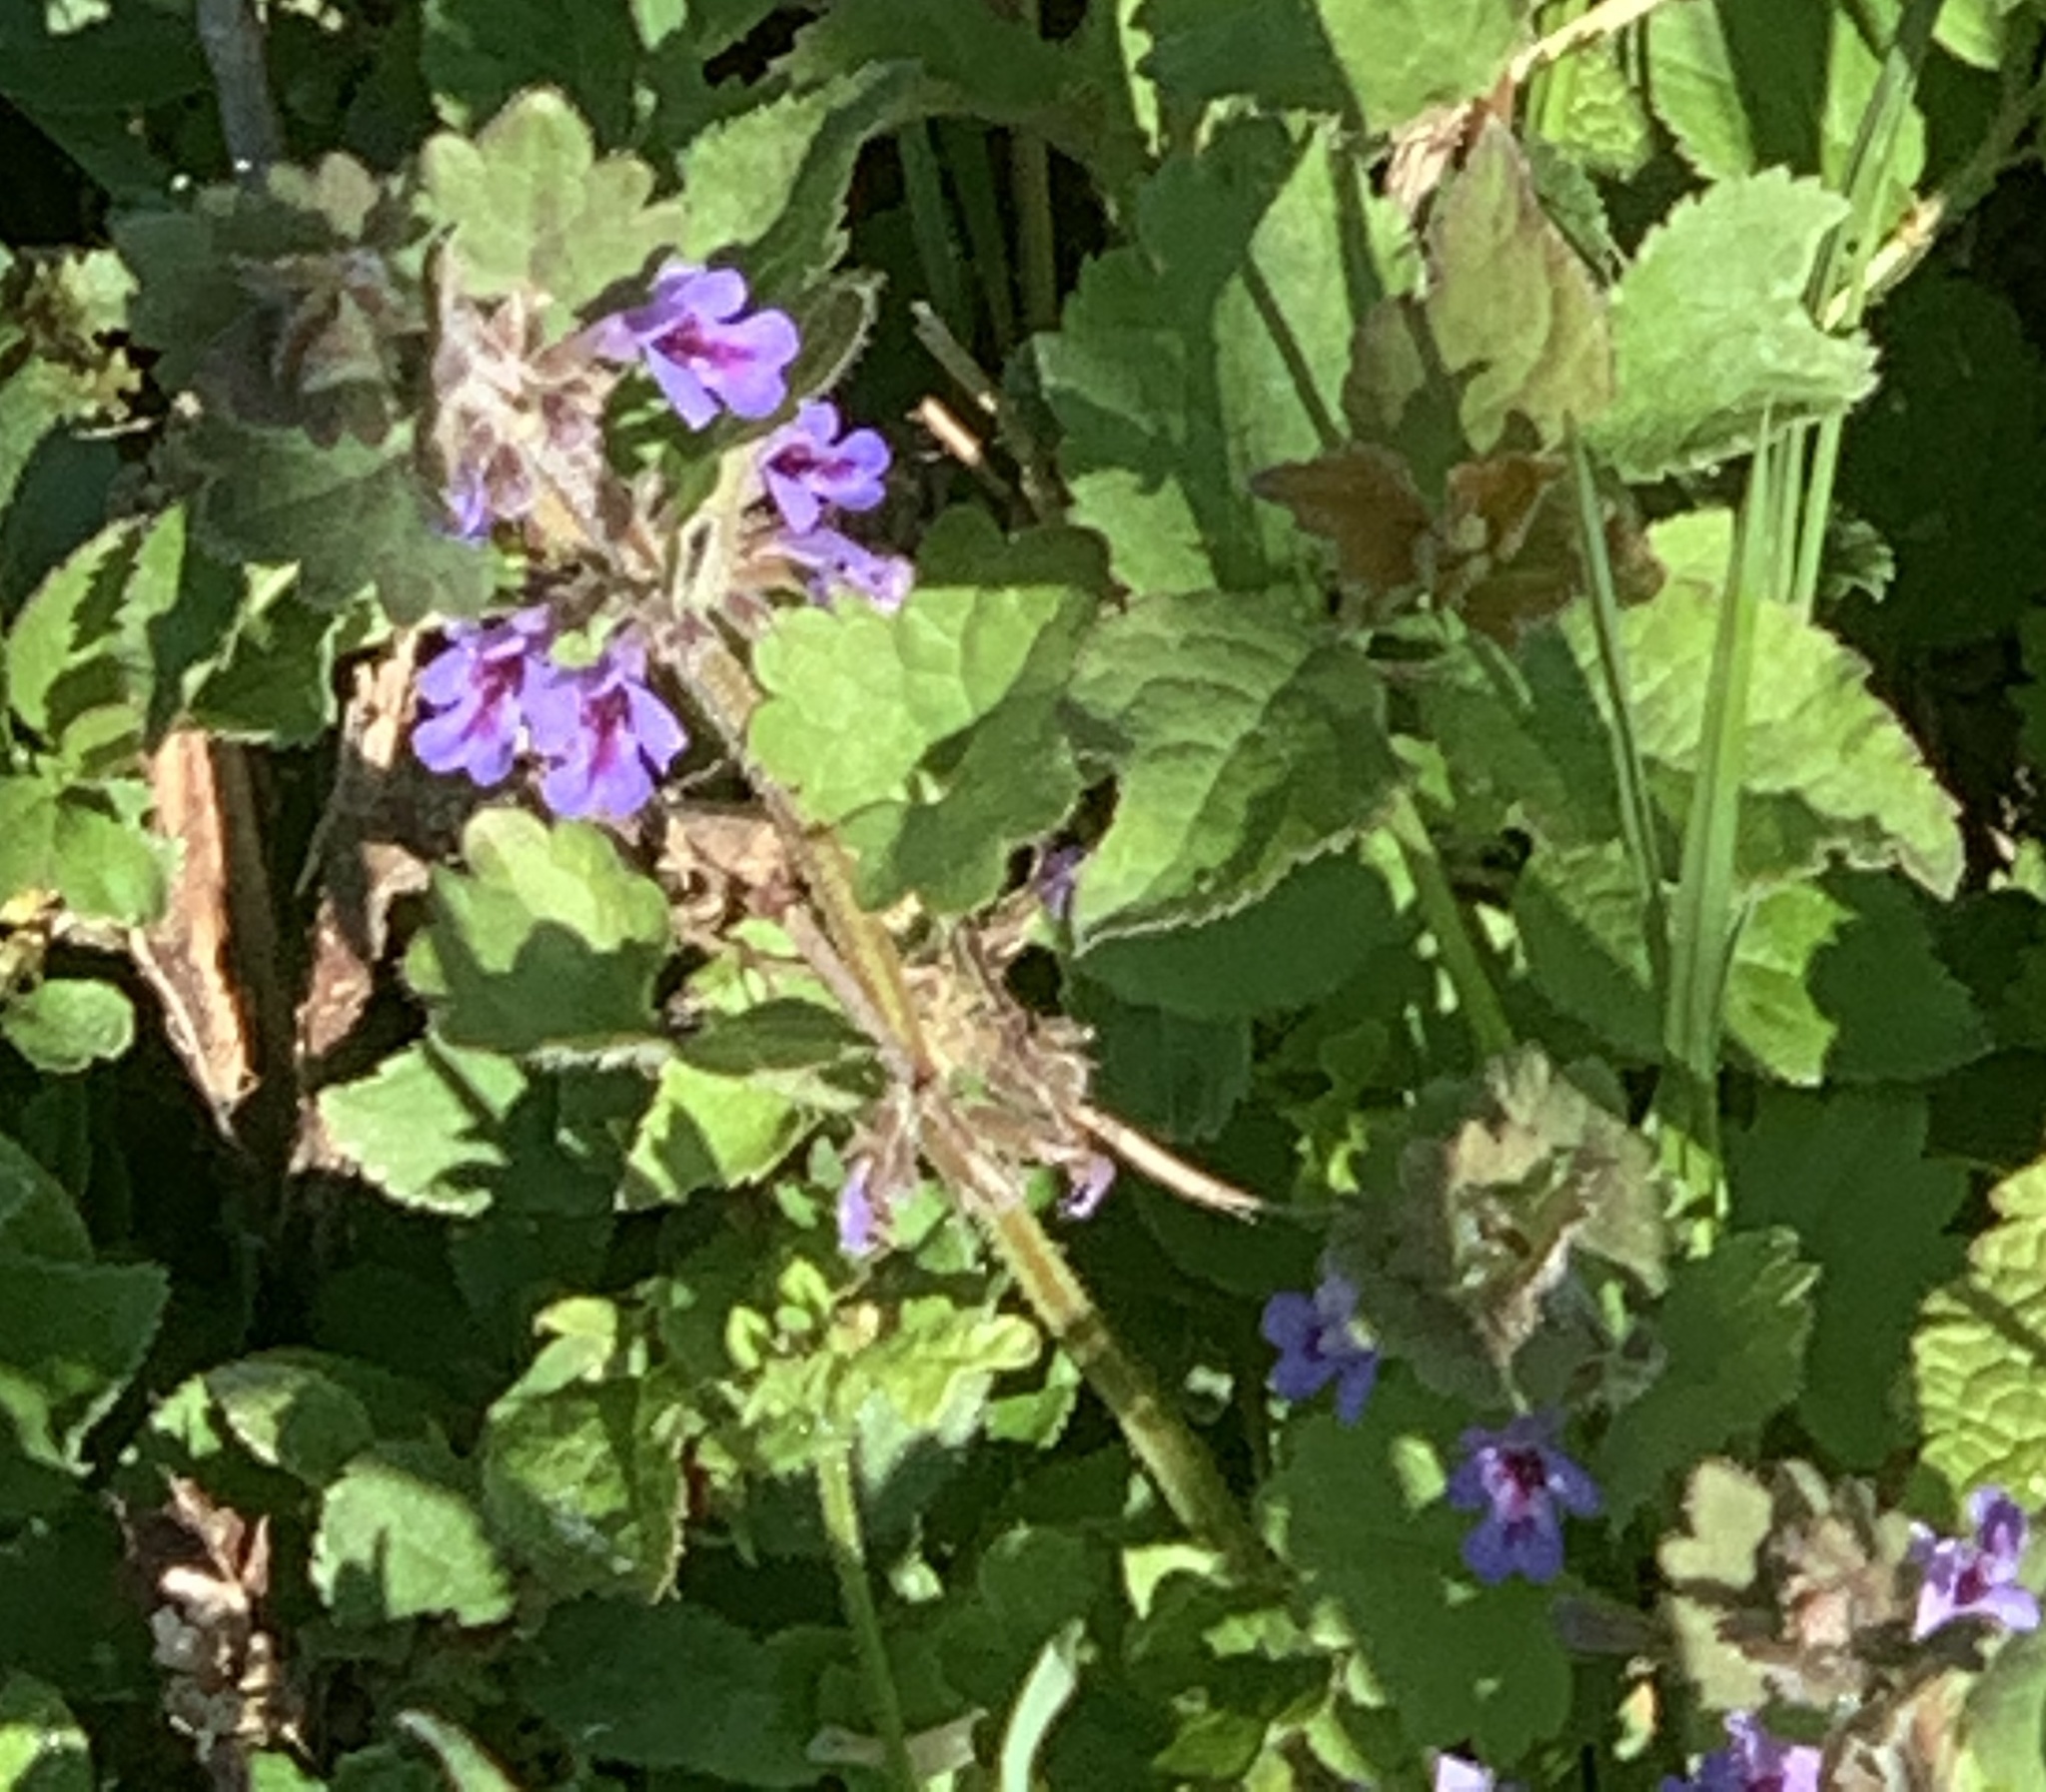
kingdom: Plantae
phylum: Tracheophyta
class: Magnoliopsida
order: Lamiales
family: Lamiaceae
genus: Glechoma
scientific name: Glechoma hederacea
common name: Ground ivy
